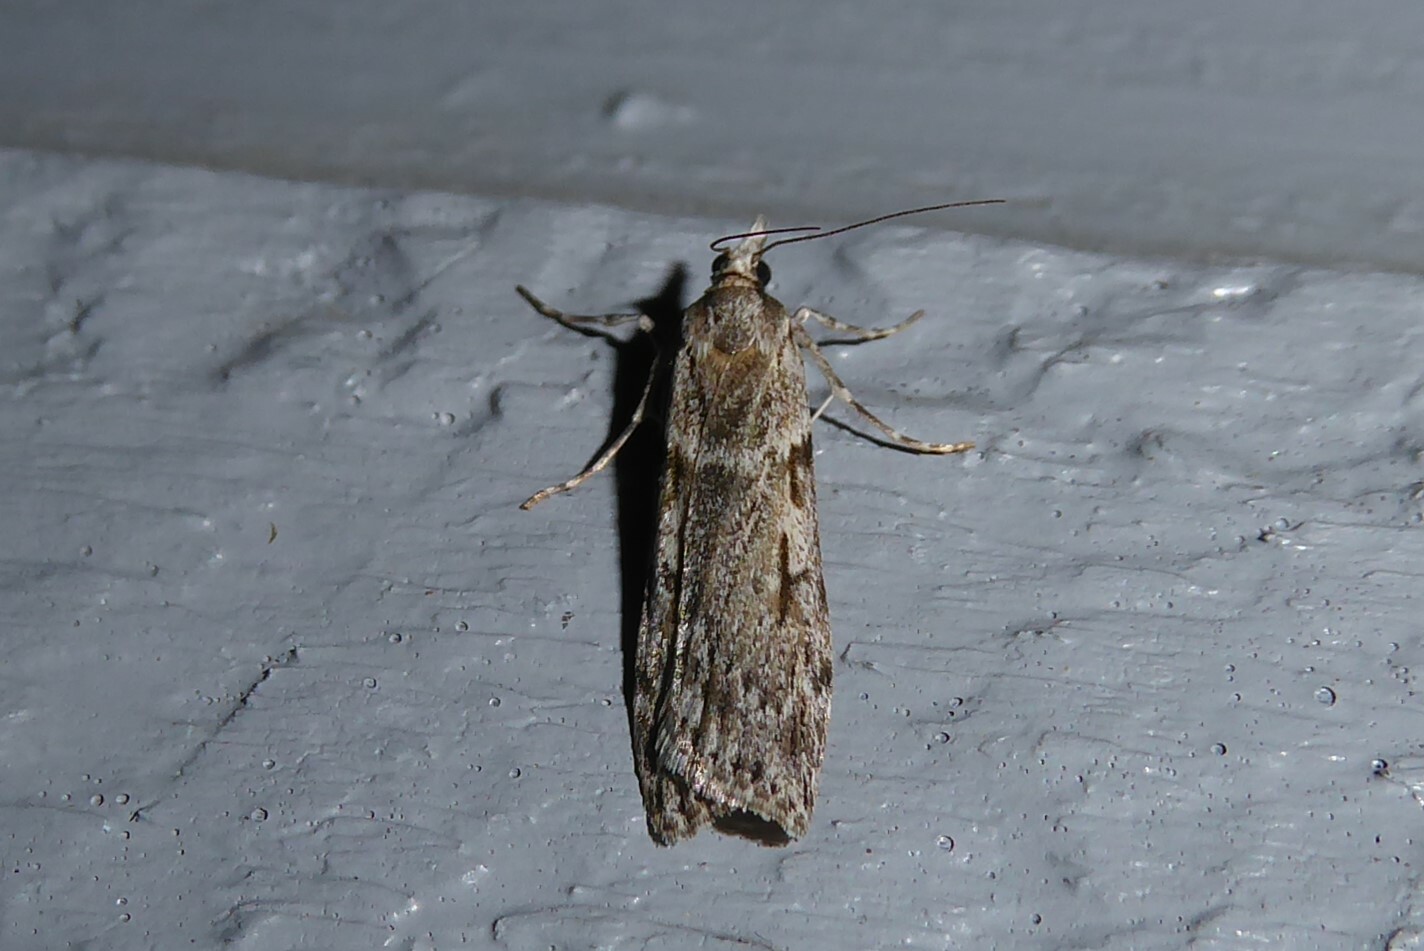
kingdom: Animalia
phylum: Arthropoda
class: Insecta
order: Lepidoptera
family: Crambidae
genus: Scoparia
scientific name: Scoparia halopis
